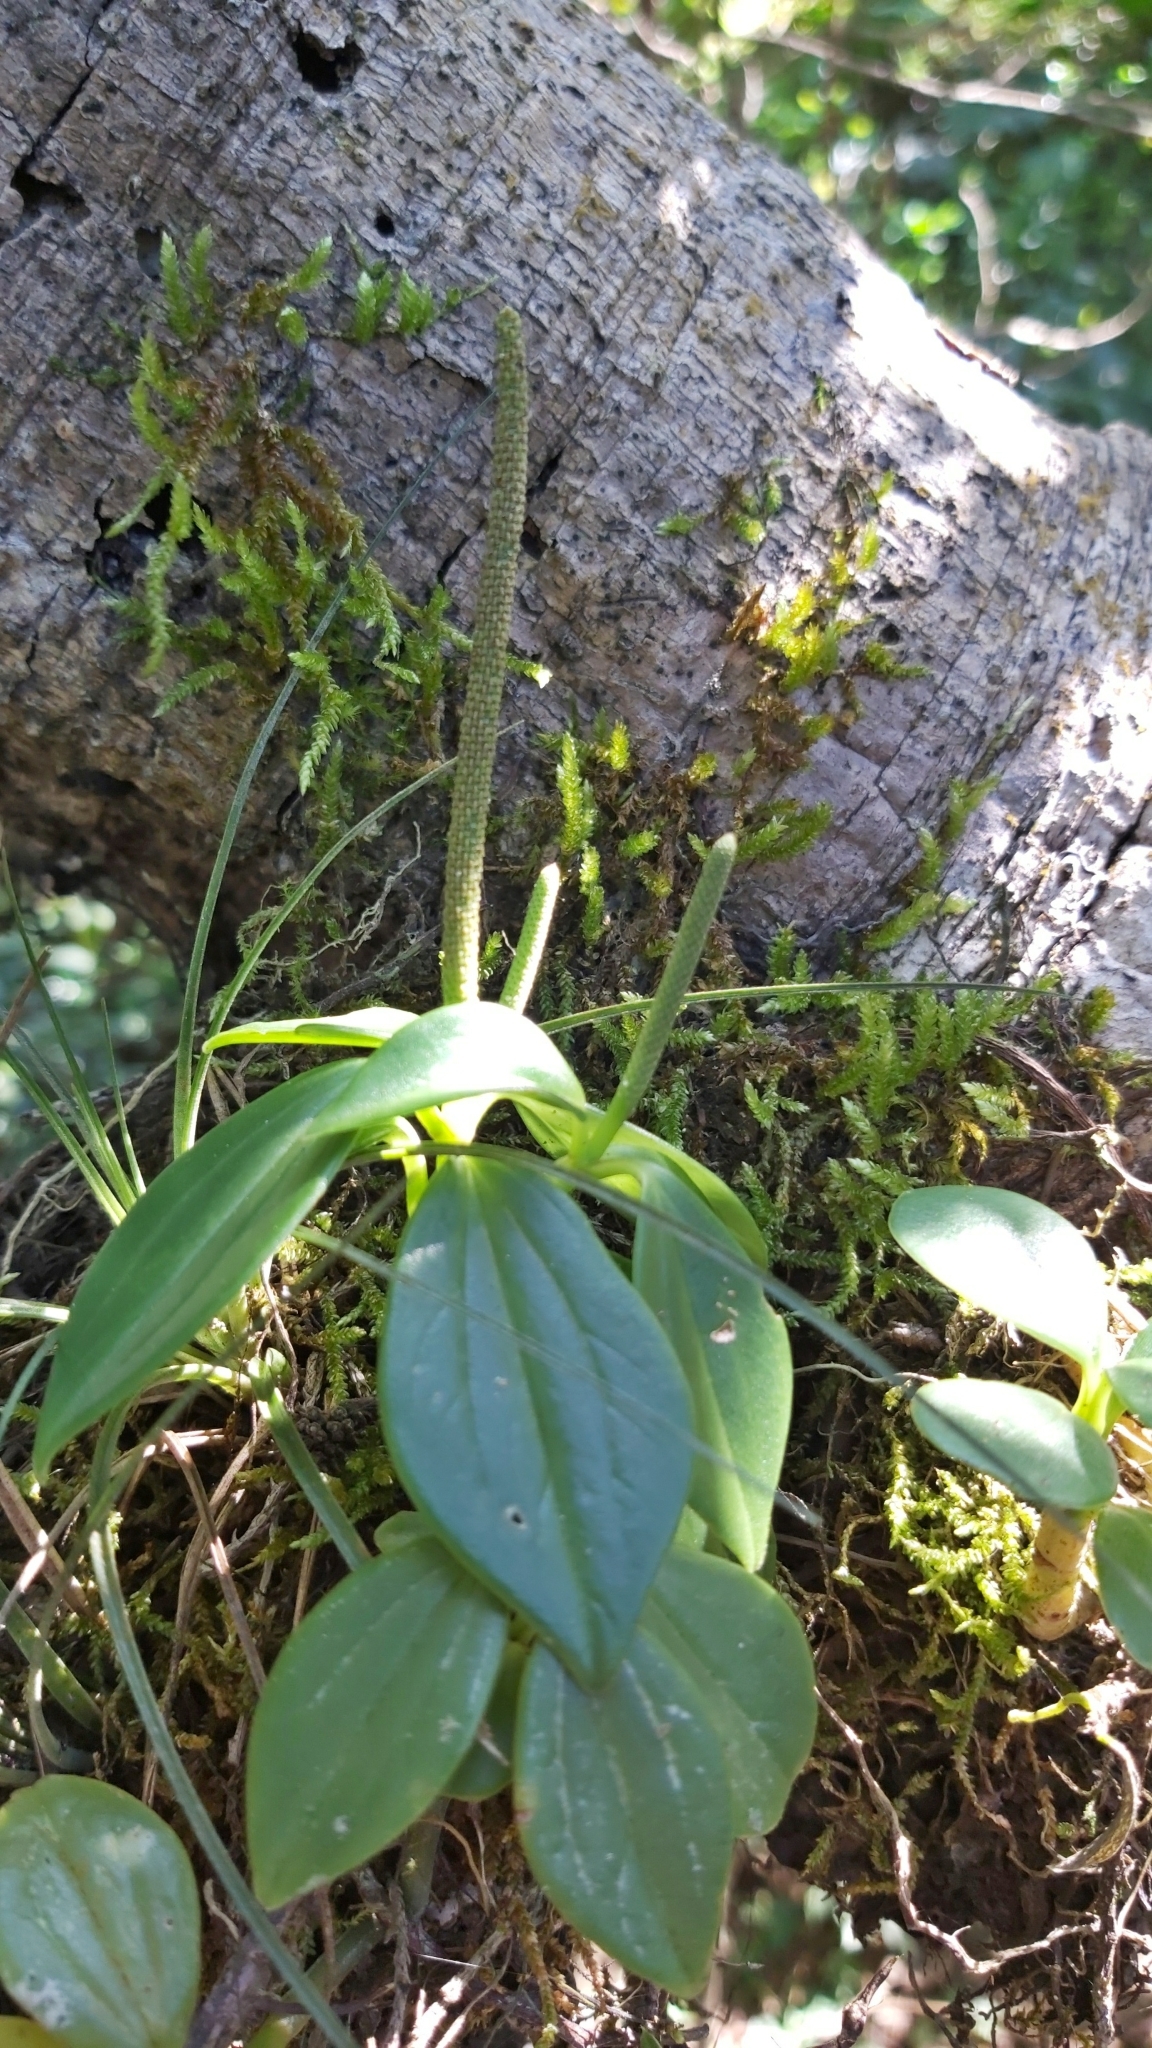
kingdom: Plantae
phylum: Tracheophyta
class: Magnoliopsida
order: Piperales
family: Piperaceae
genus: Peperomia
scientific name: Peperomia san-joseana
